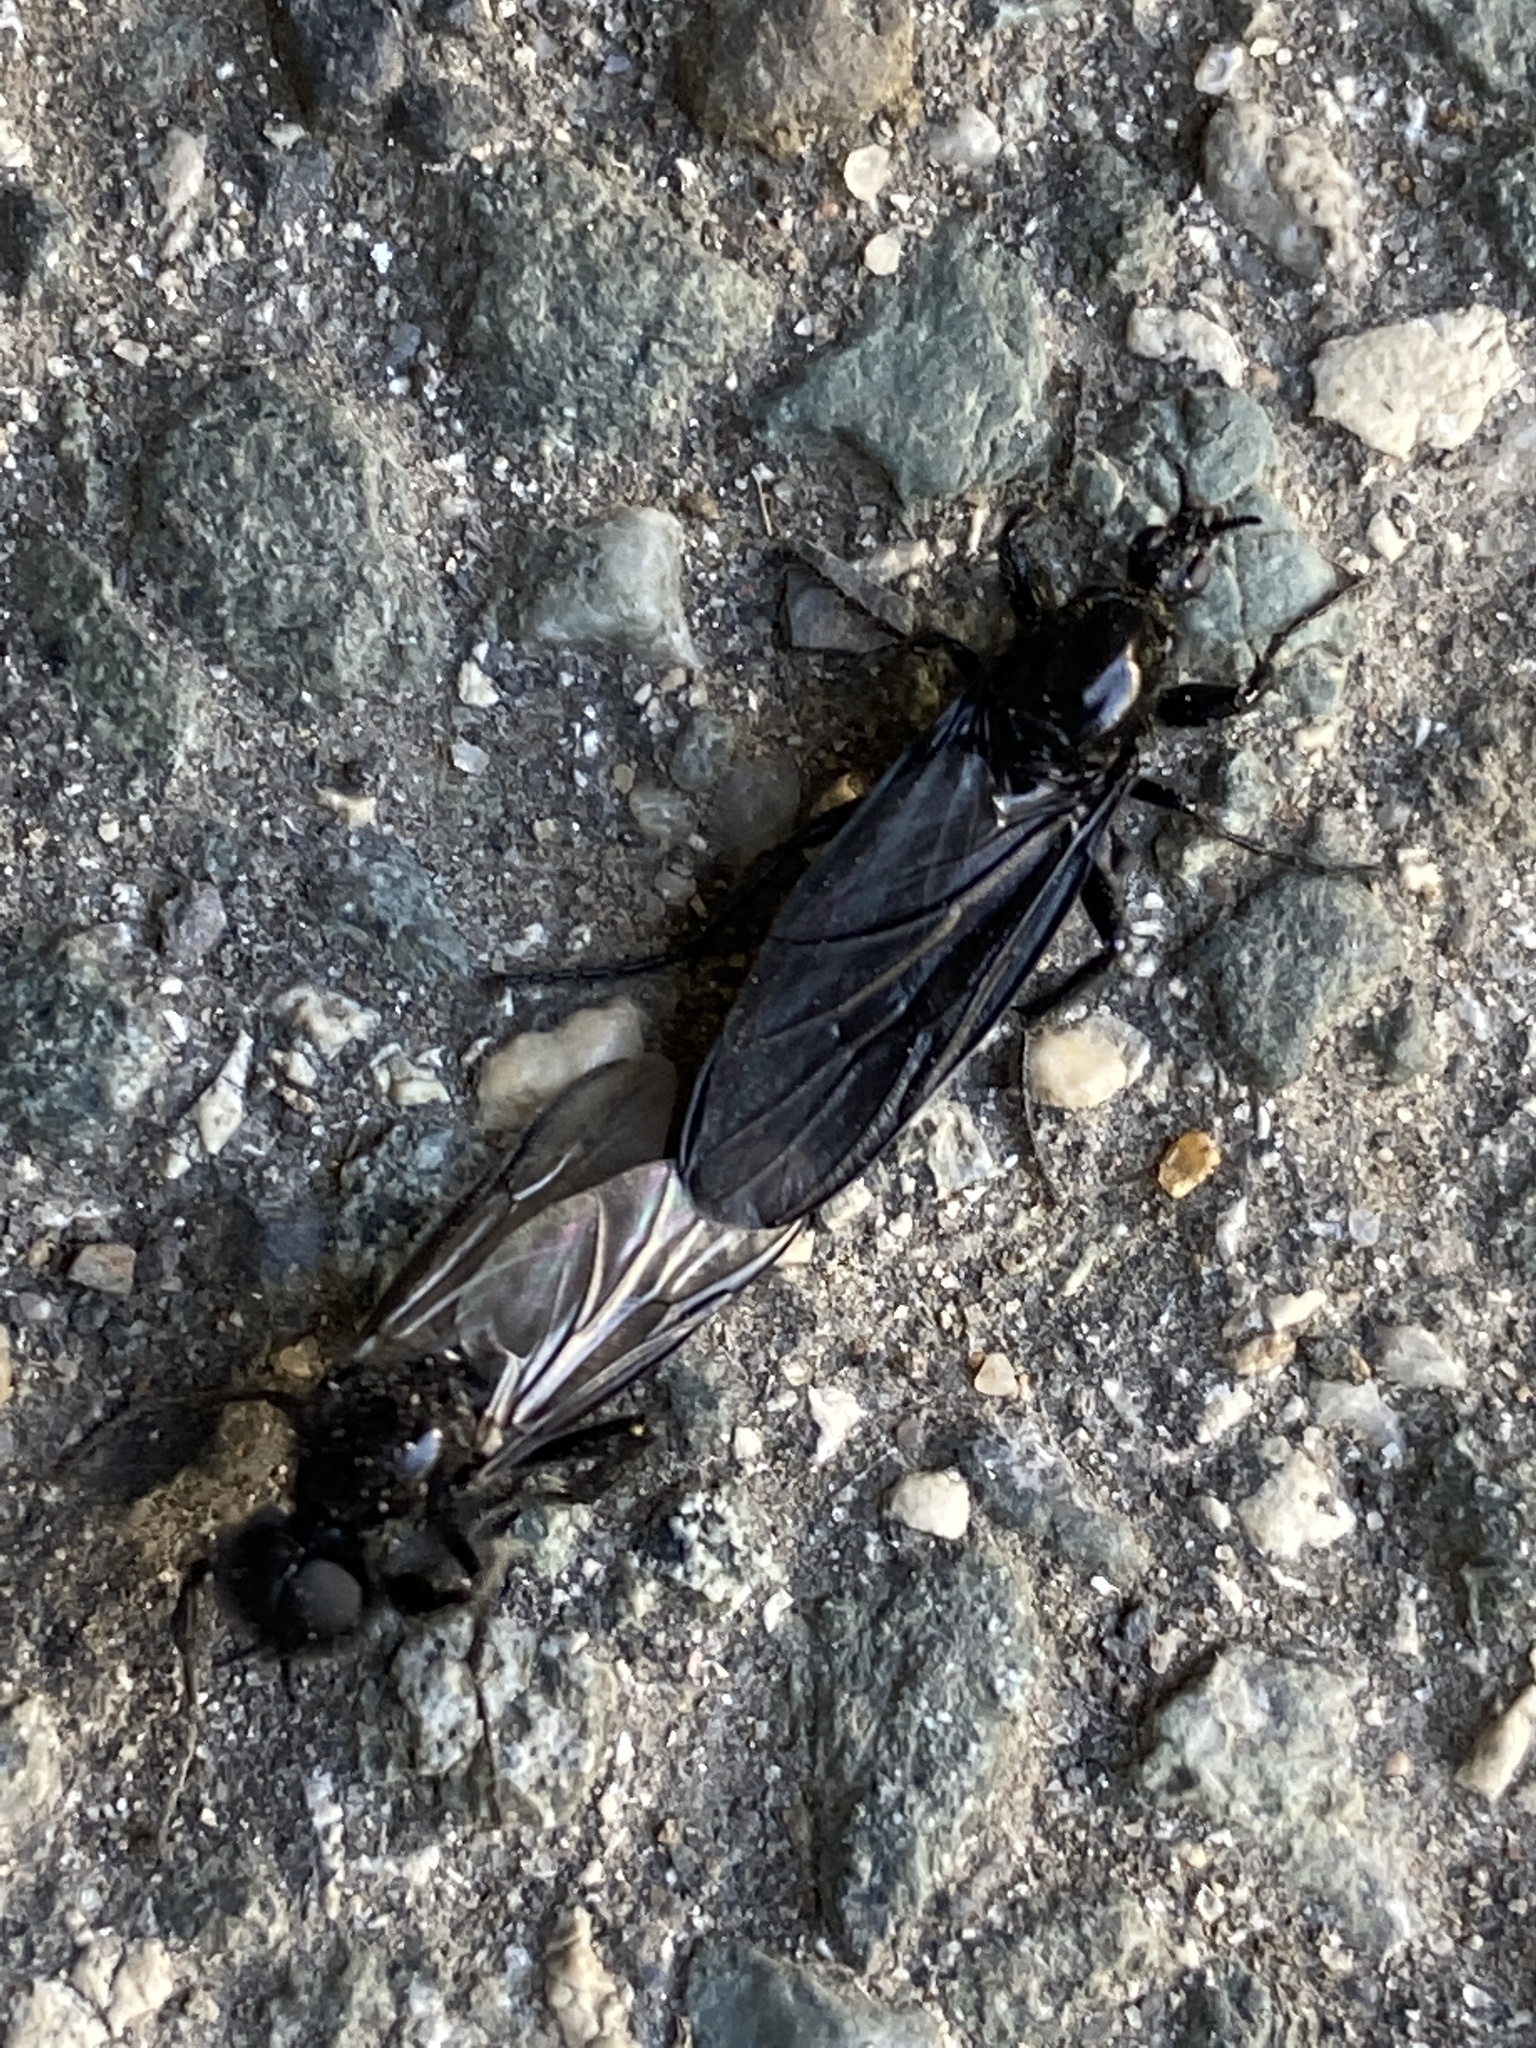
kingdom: Animalia
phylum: Arthropoda
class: Insecta
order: Diptera
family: Bibionidae
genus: Bibio
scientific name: Bibio marci
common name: St marks fly
